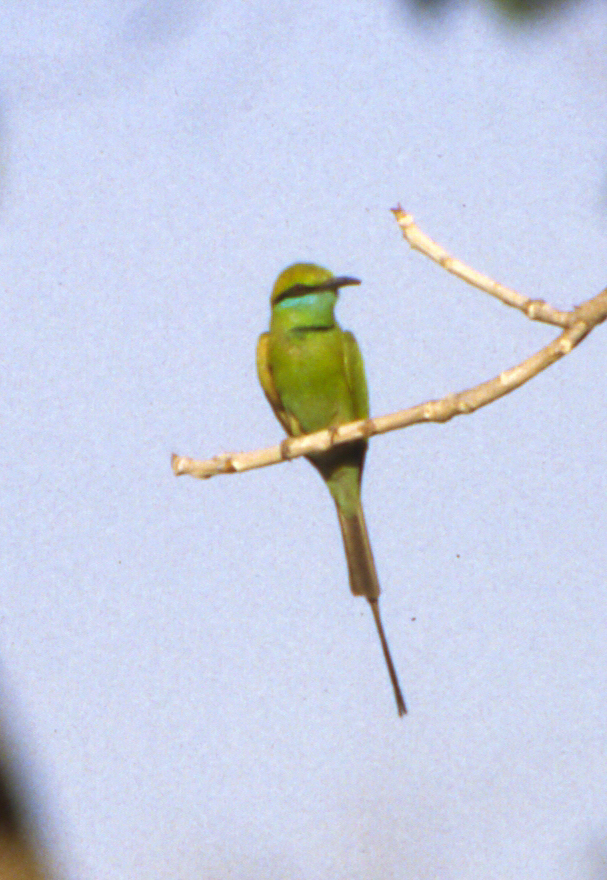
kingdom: Animalia
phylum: Chordata
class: Aves
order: Coraciiformes
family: Meropidae
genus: Merops
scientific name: Merops orientalis
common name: Green bee-eater
